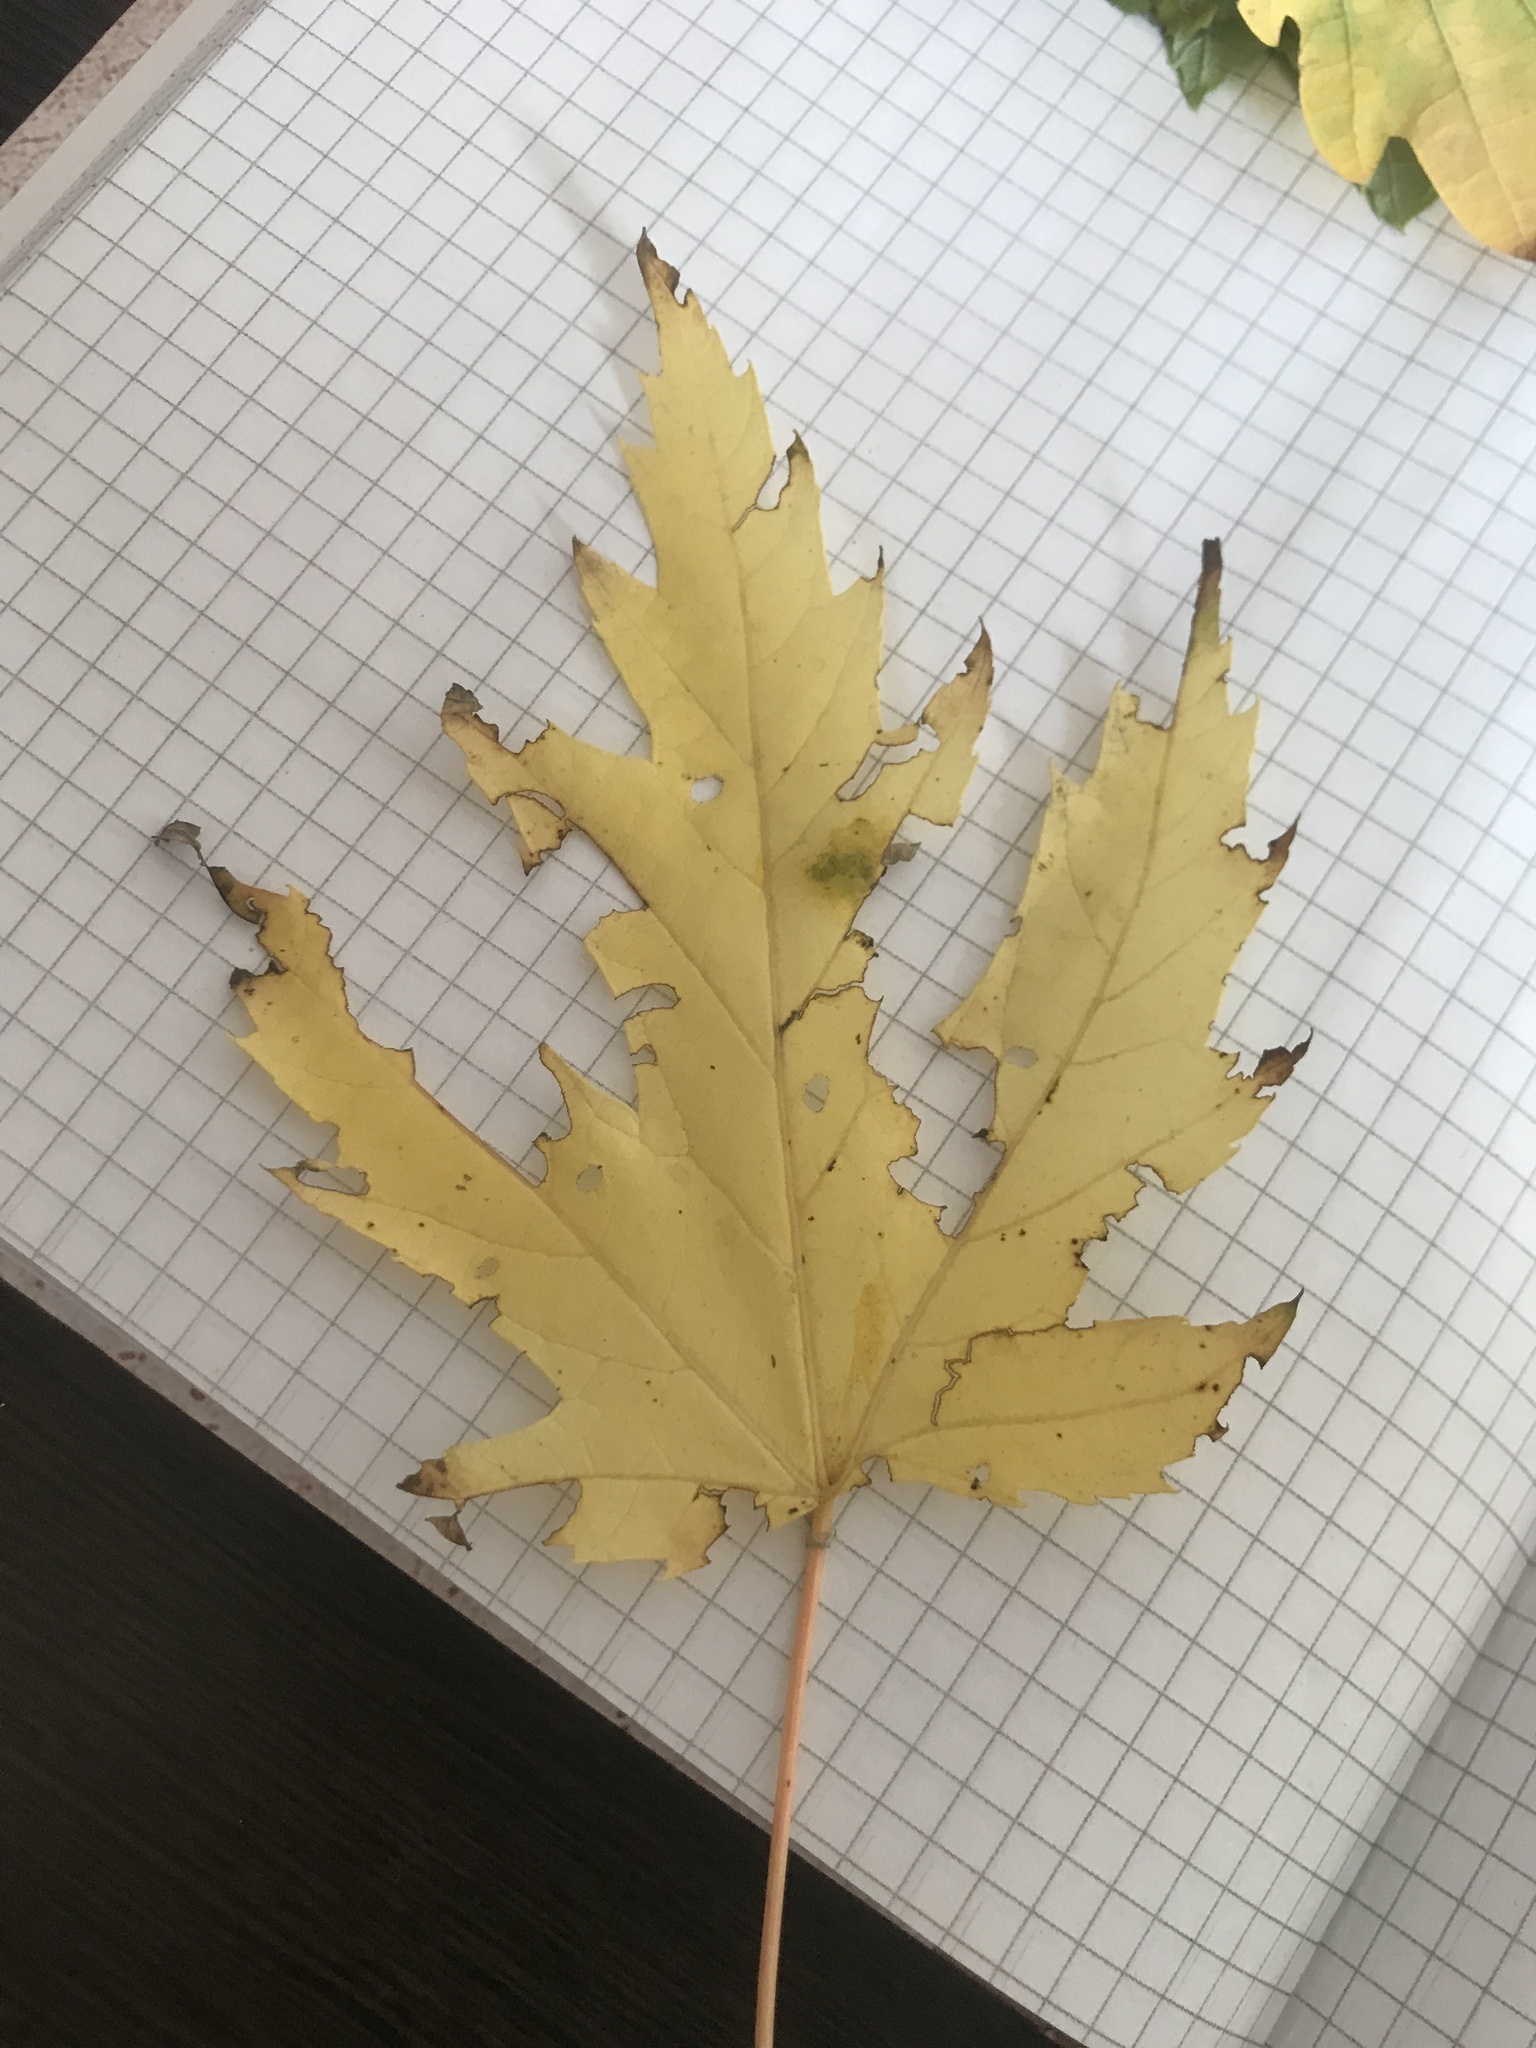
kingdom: Plantae
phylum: Tracheophyta
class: Magnoliopsida
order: Sapindales
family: Sapindaceae
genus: Acer
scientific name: Acer saccharinum
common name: Silver maple
